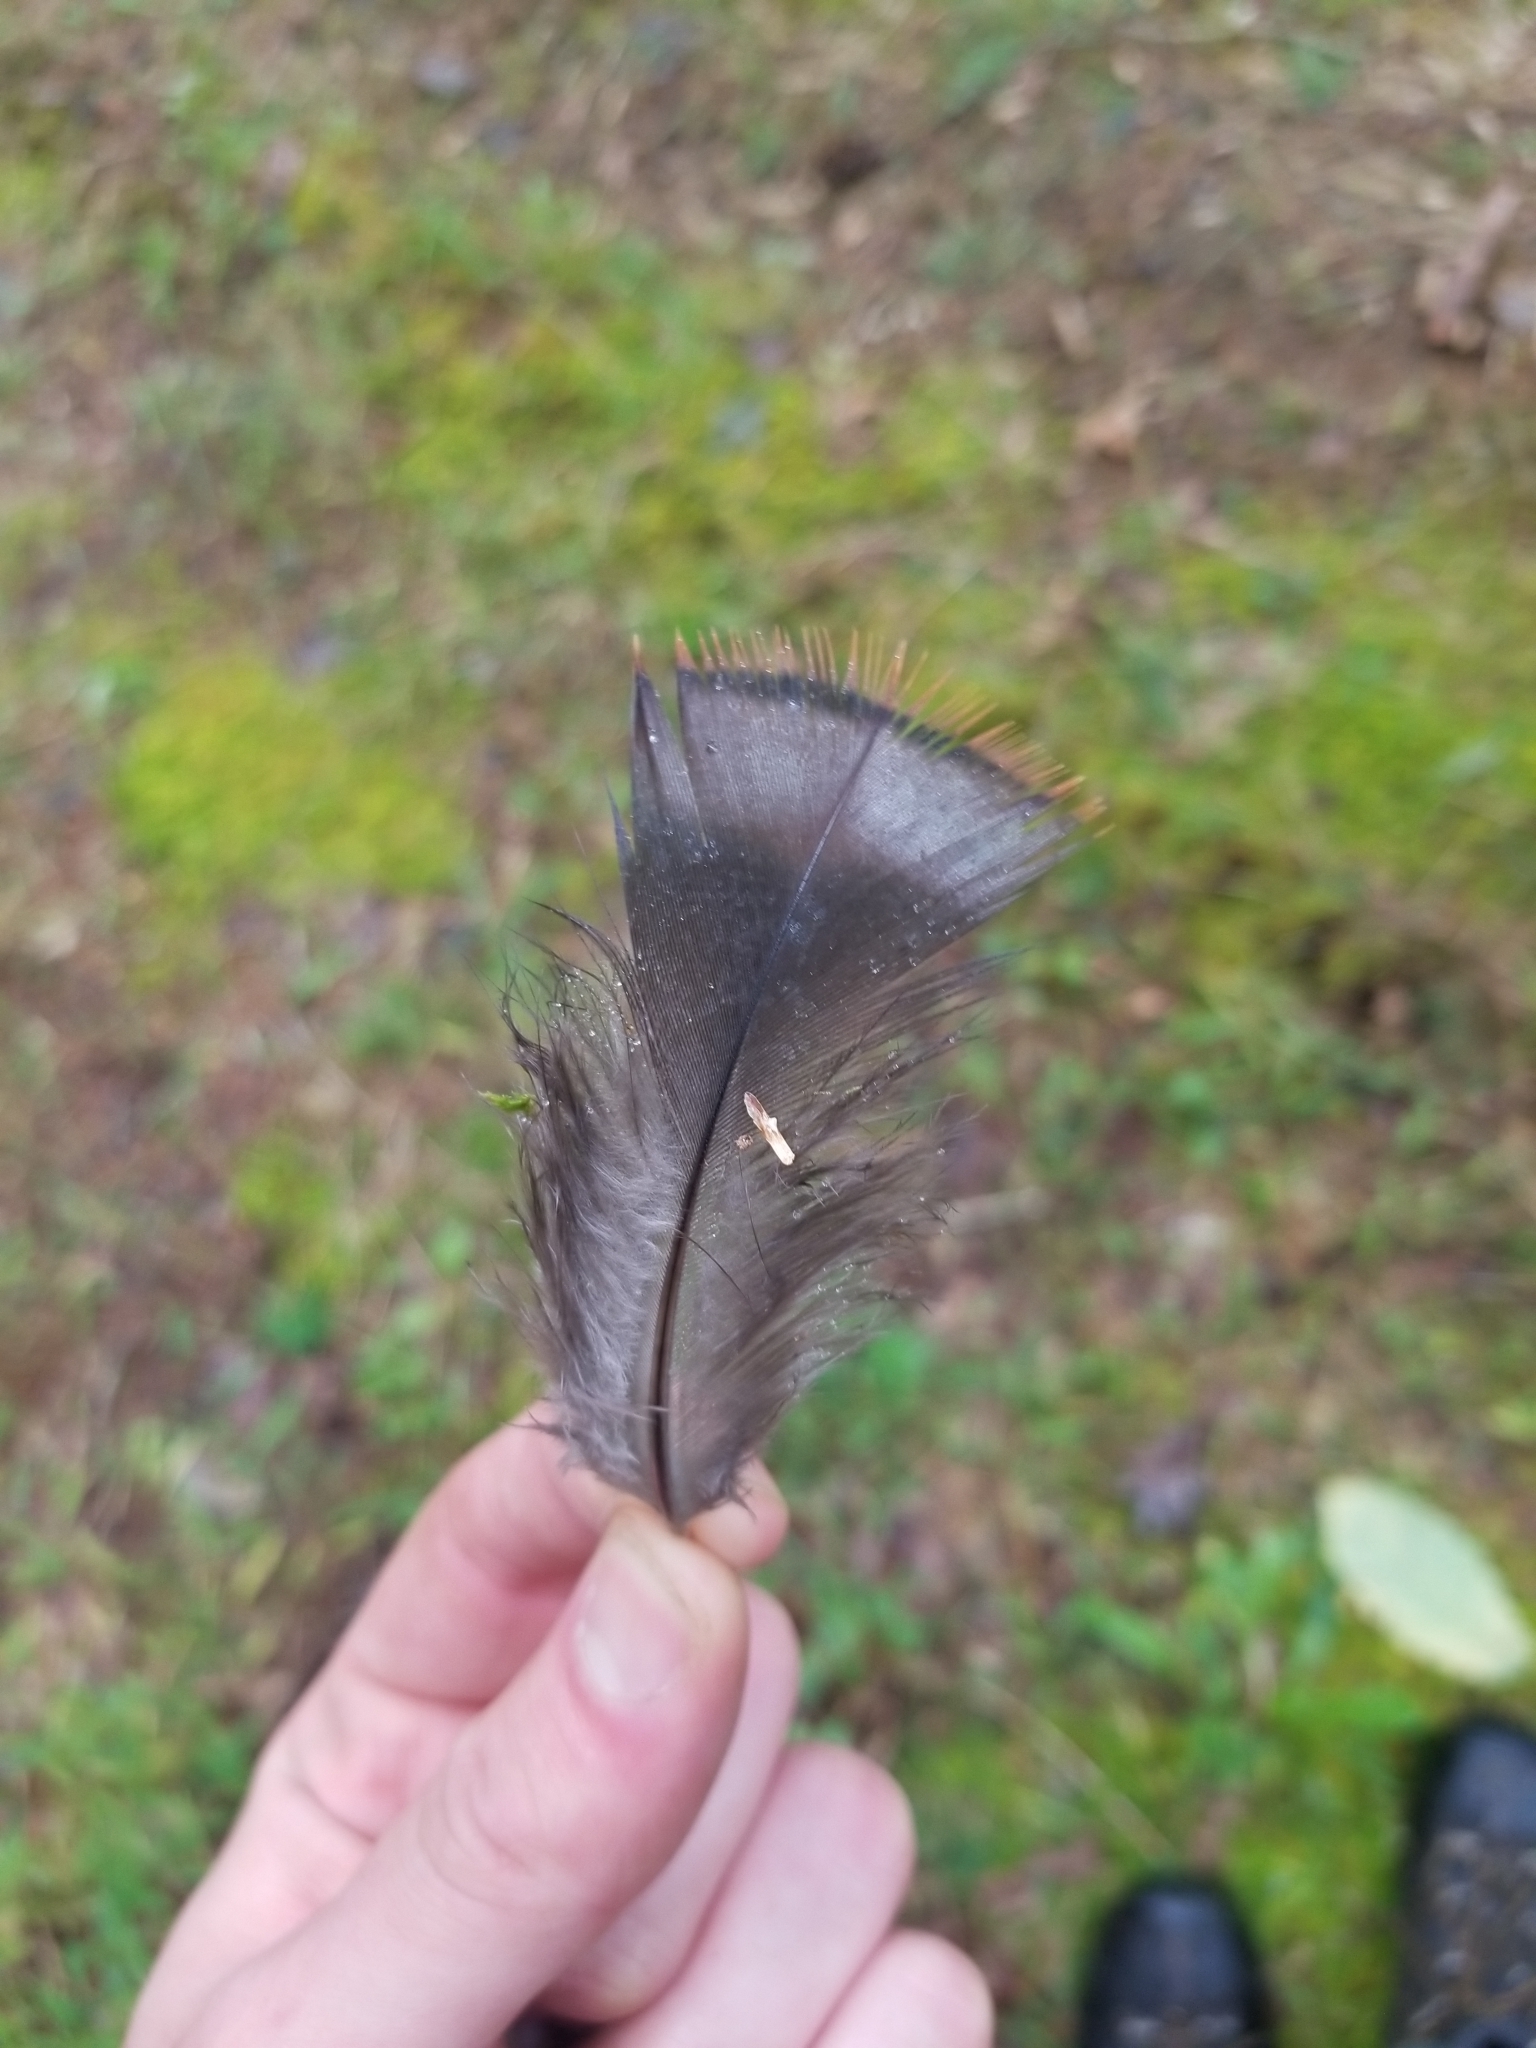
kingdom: Animalia
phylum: Chordata
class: Aves
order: Galliformes
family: Phasianidae
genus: Meleagris
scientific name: Meleagris gallopavo
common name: Wild turkey
